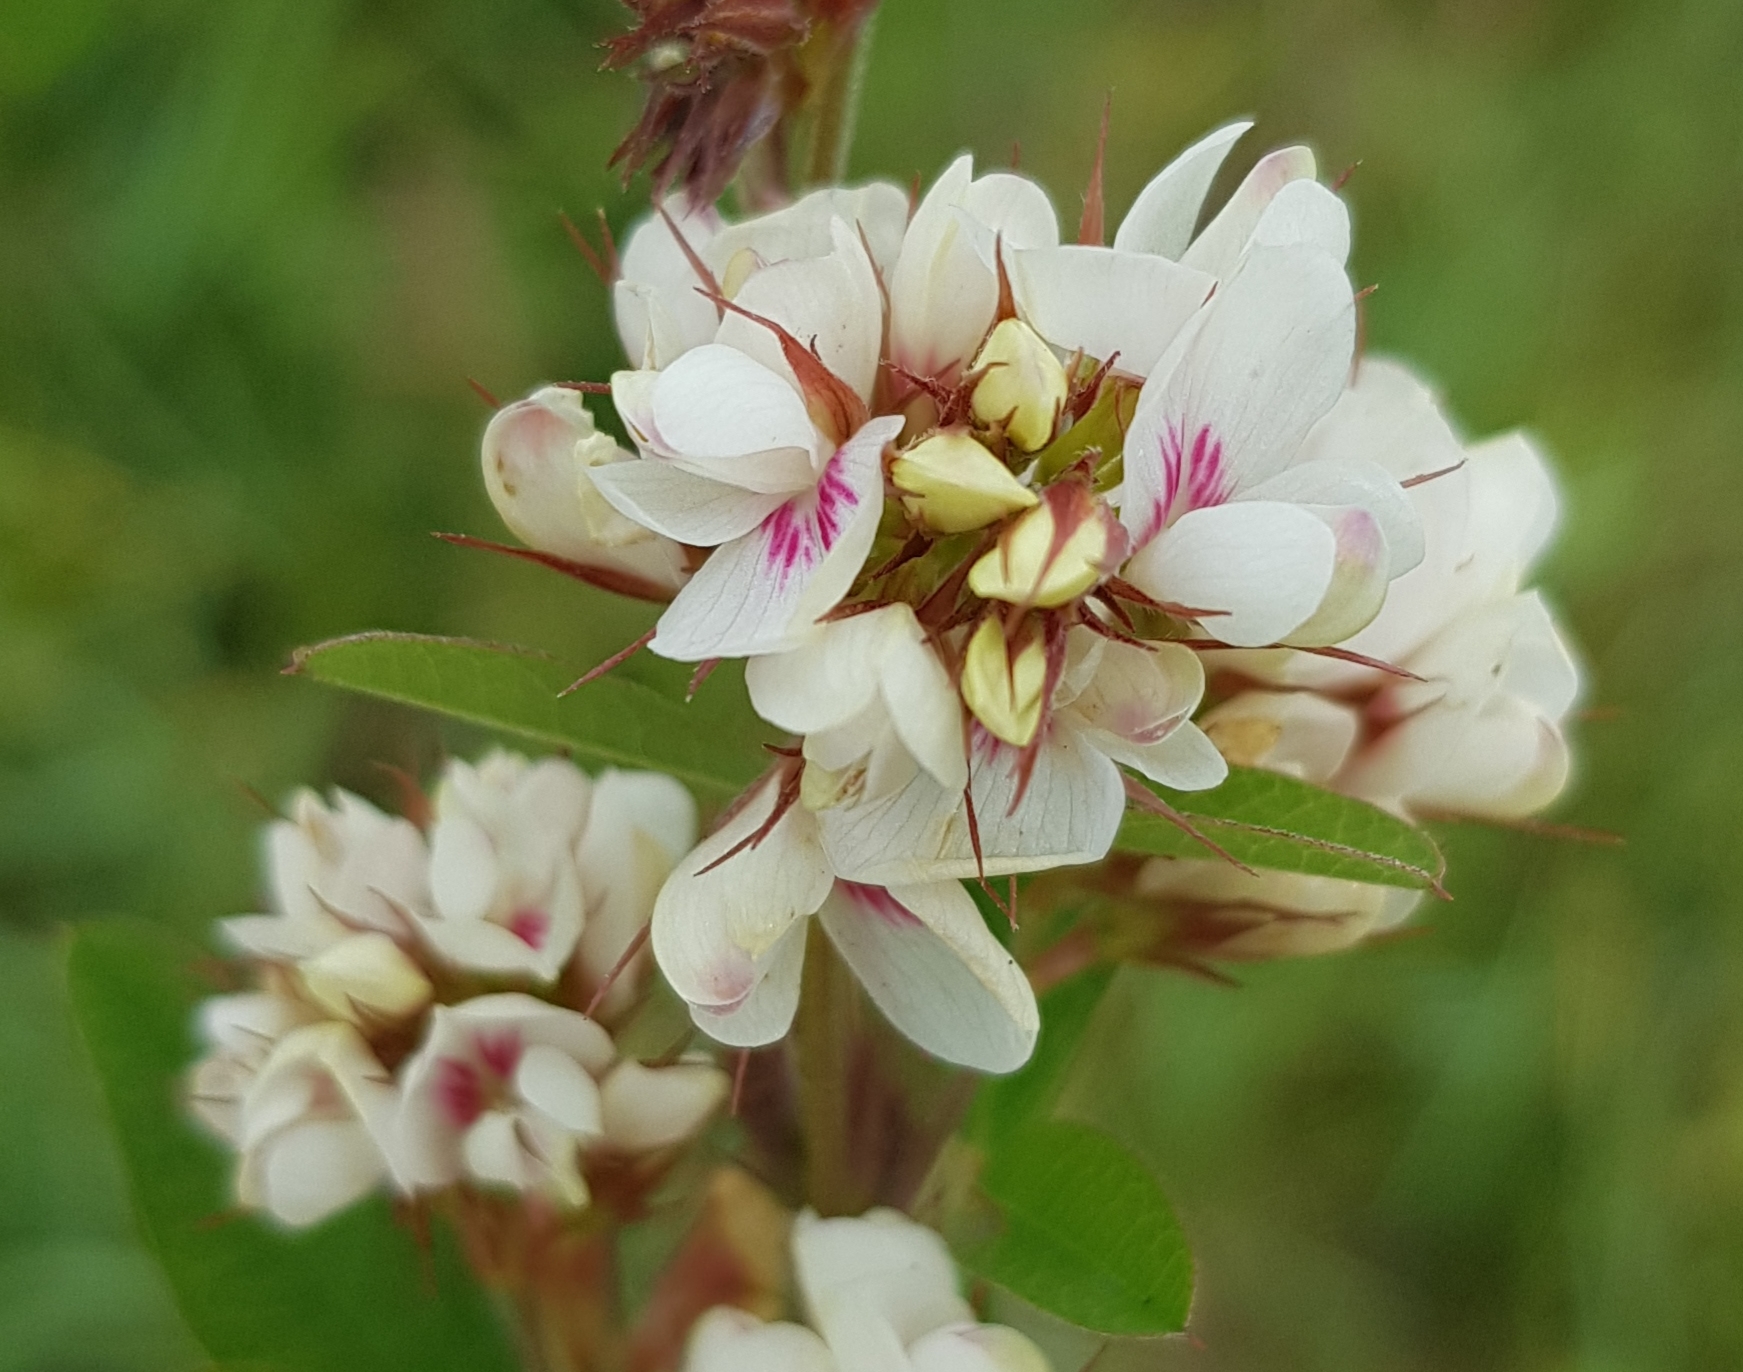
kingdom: Plantae
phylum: Tracheophyta
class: Magnoliopsida
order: Fabales
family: Fabaceae
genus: Lespedeza
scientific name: Lespedeza tomentosa
